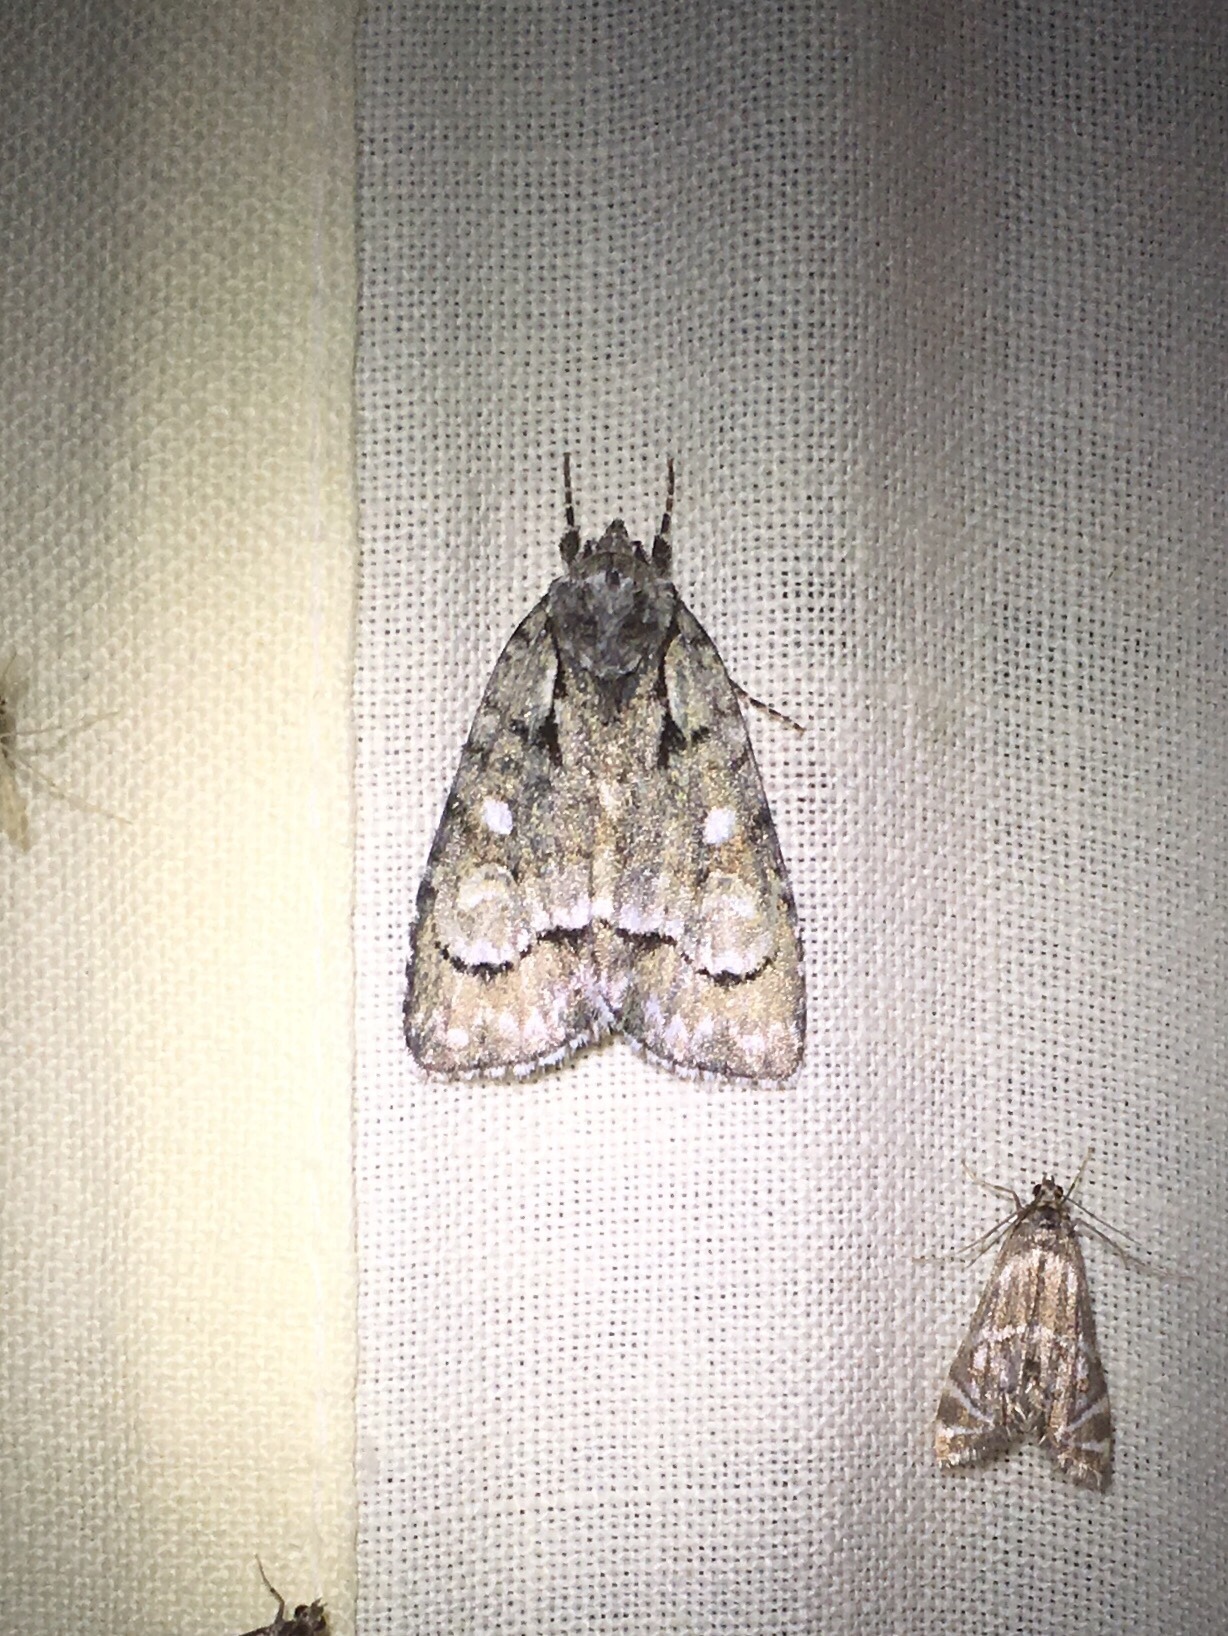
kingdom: Animalia
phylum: Arthropoda
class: Insecta
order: Lepidoptera
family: Noctuidae
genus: Acronicta
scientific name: Acronicta vinnula
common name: Delightful dagger
